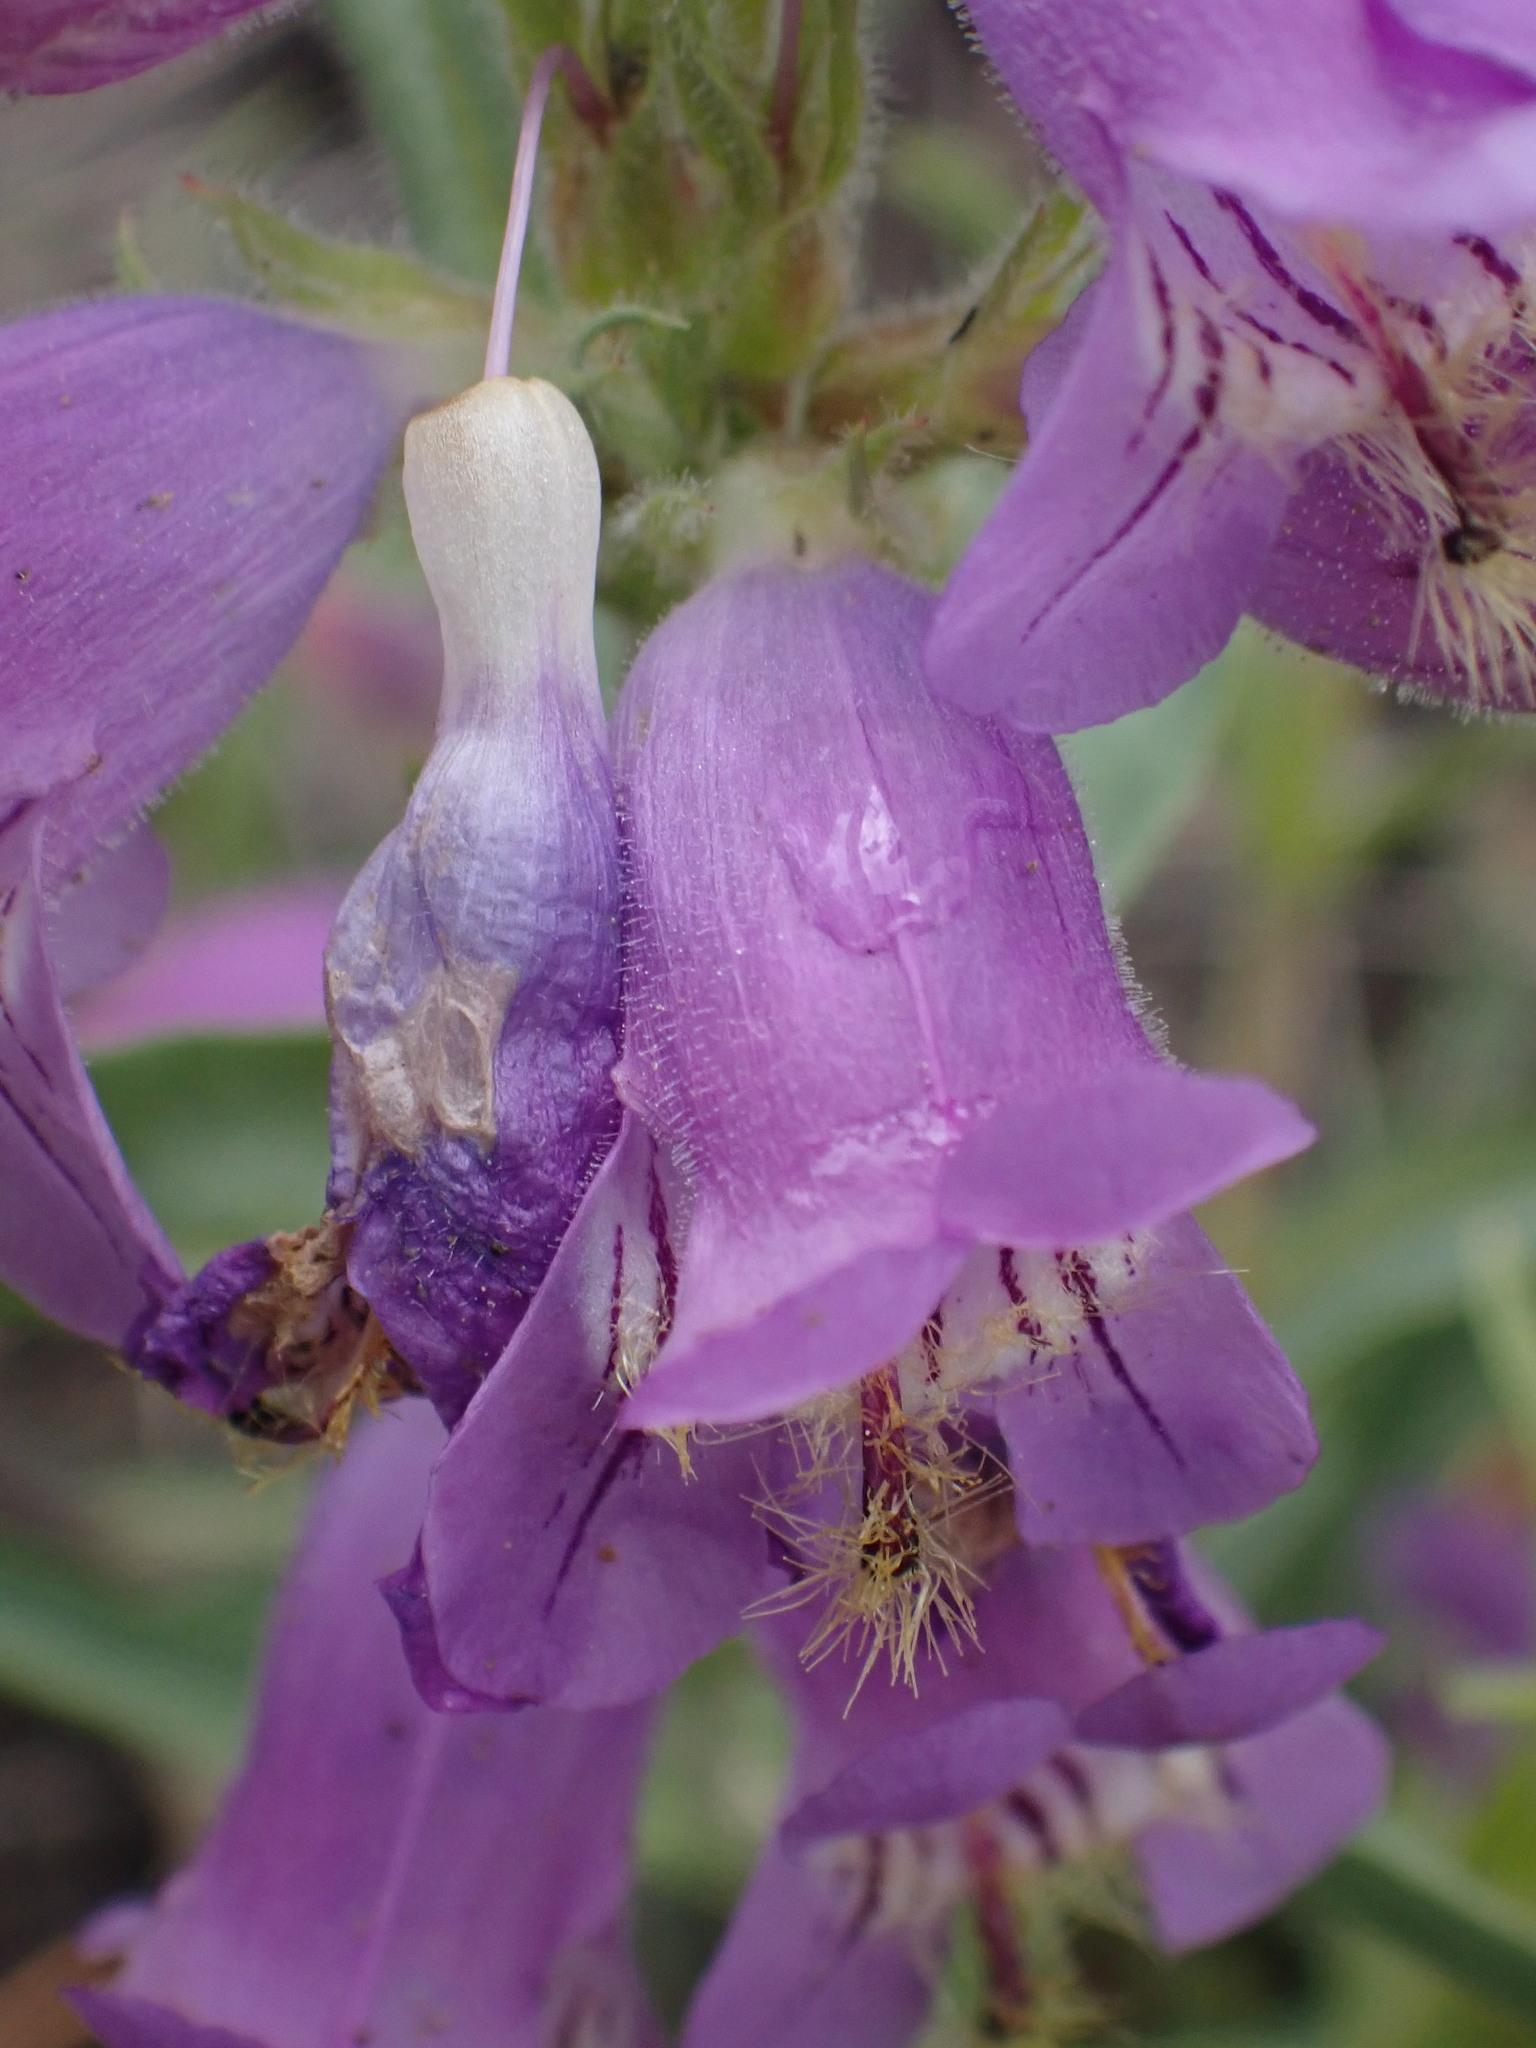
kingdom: Plantae
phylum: Tracheophyta
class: Magnoliopsida
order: Lamiales
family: Plantaginaceae
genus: Penstemon
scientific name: Penstemon eriantherus
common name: Crested beardtongue
